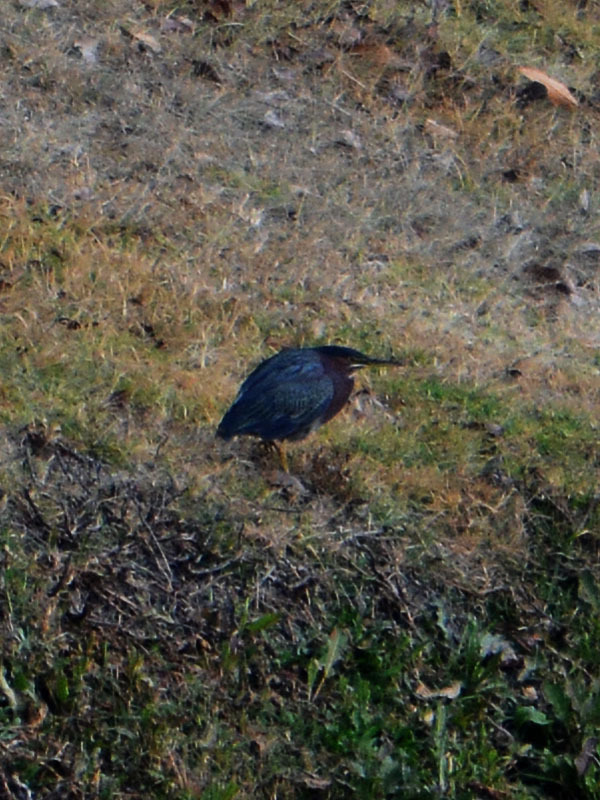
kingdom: Animalia
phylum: Chordata
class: Aves
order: Pelecaniformes
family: Ardeidae
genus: Butorides
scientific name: Butorides virescens
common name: Green heron
